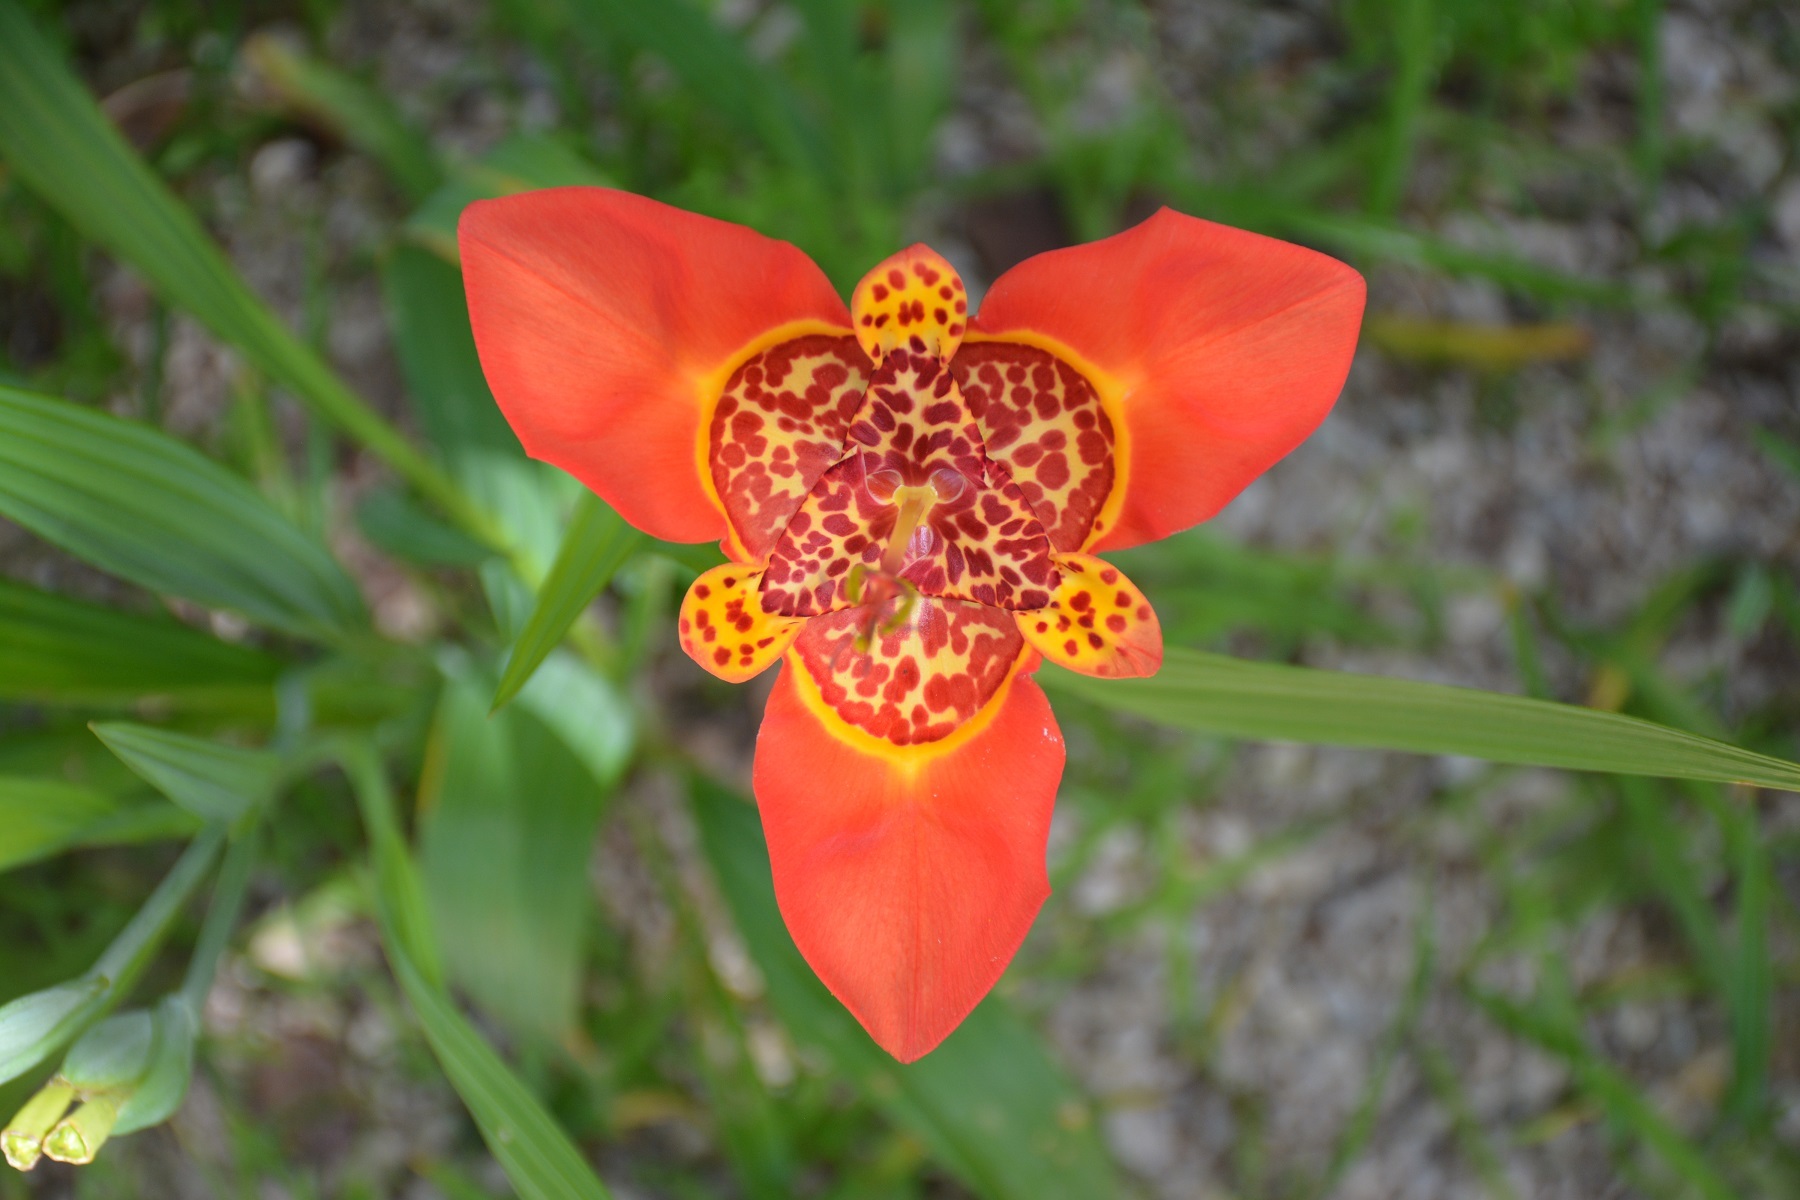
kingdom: Plantae
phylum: Tracheophyta
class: Liliopsida
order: Asparagales
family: Iridaceae
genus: Tigridia
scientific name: Tigridia pavonia
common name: Peacock-flower
